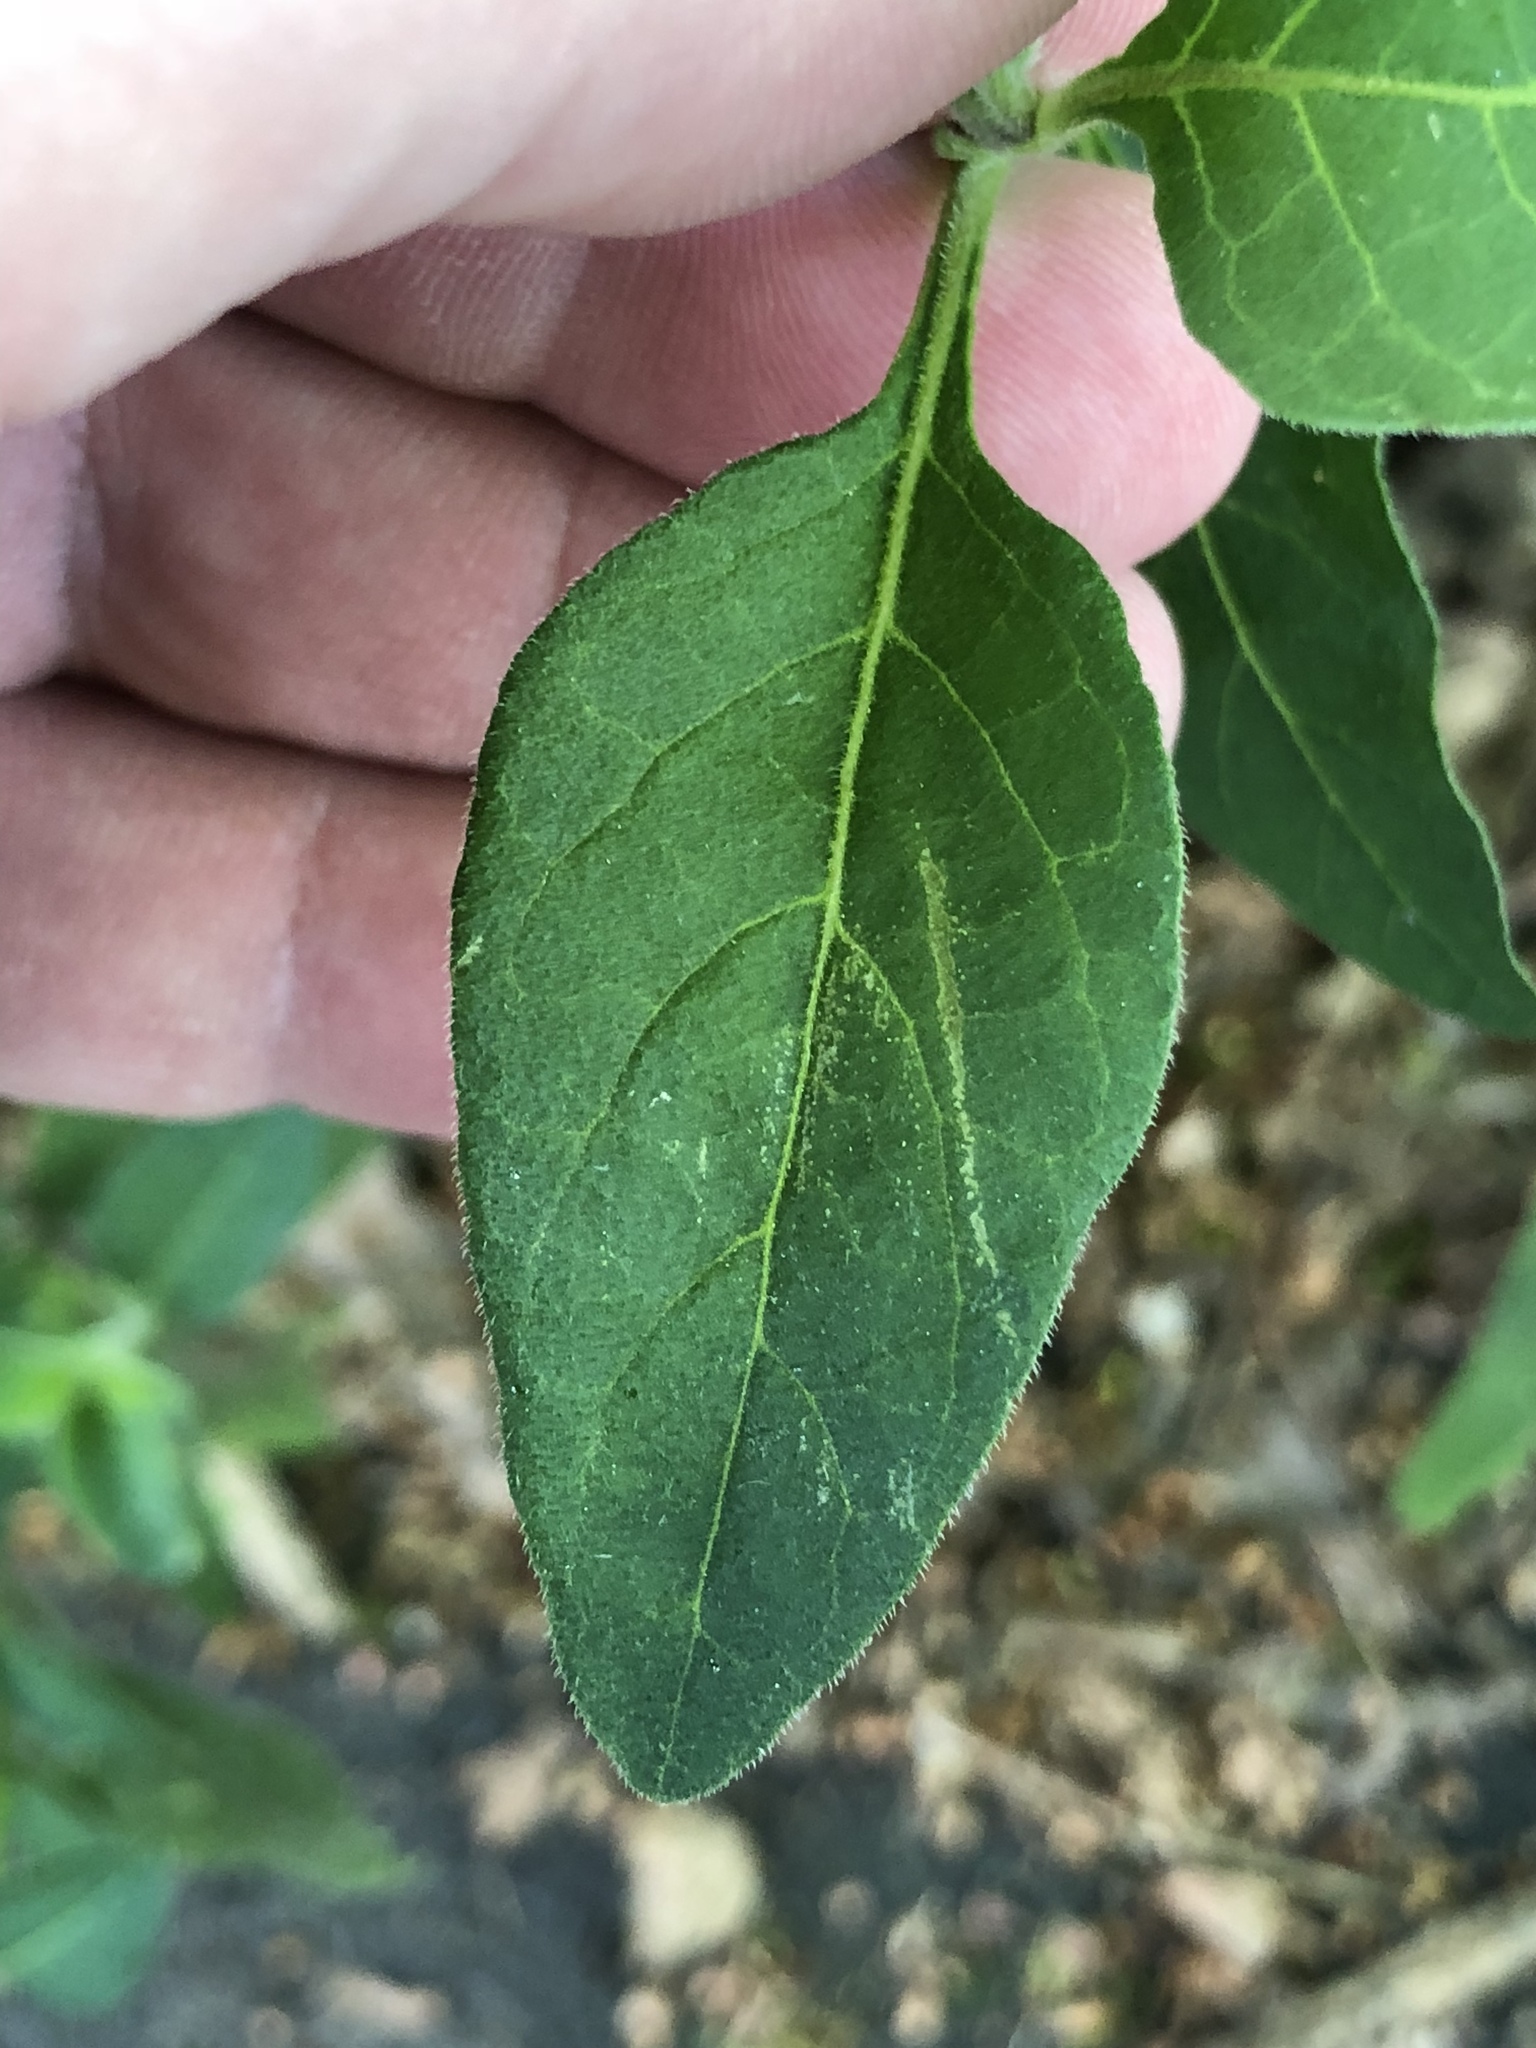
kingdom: Plantae
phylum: Tracheophyta
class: Magnoliopsida
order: Solanales
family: Solanaceae
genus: Solanum
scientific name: Solanum chenopodioides
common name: Tall nightshade
